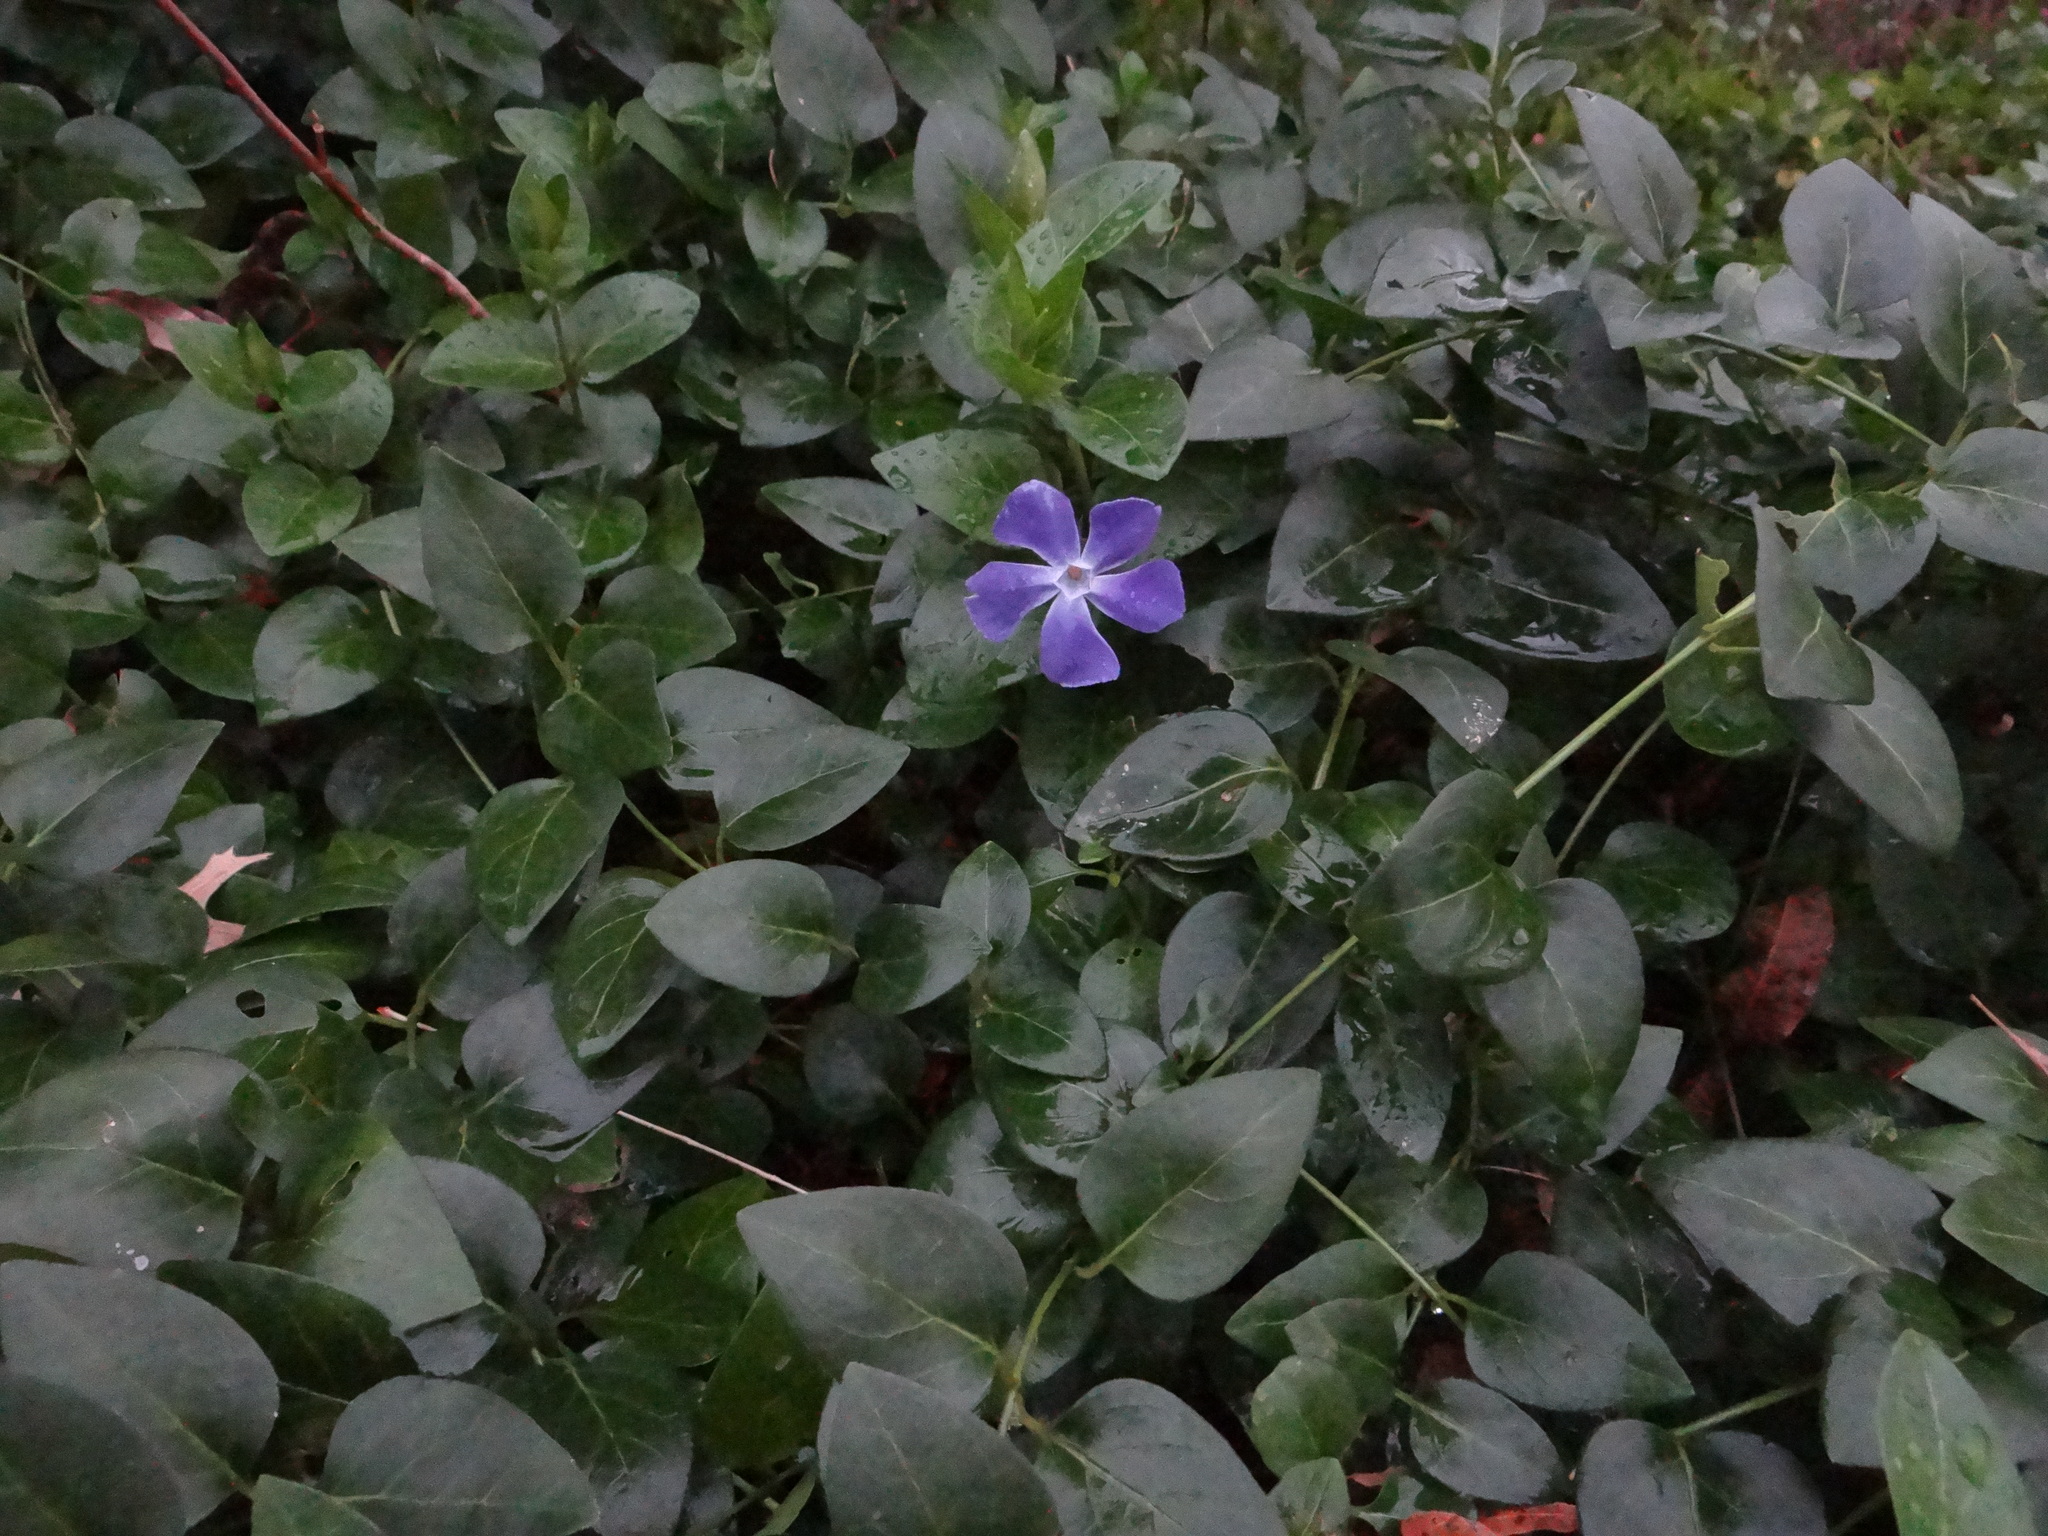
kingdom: Plantae
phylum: Tracheophyta
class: Magnoliopsida
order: Gentianales
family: Apocynaceae
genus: Vinca
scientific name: Vinca major
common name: Greater periwinkle
